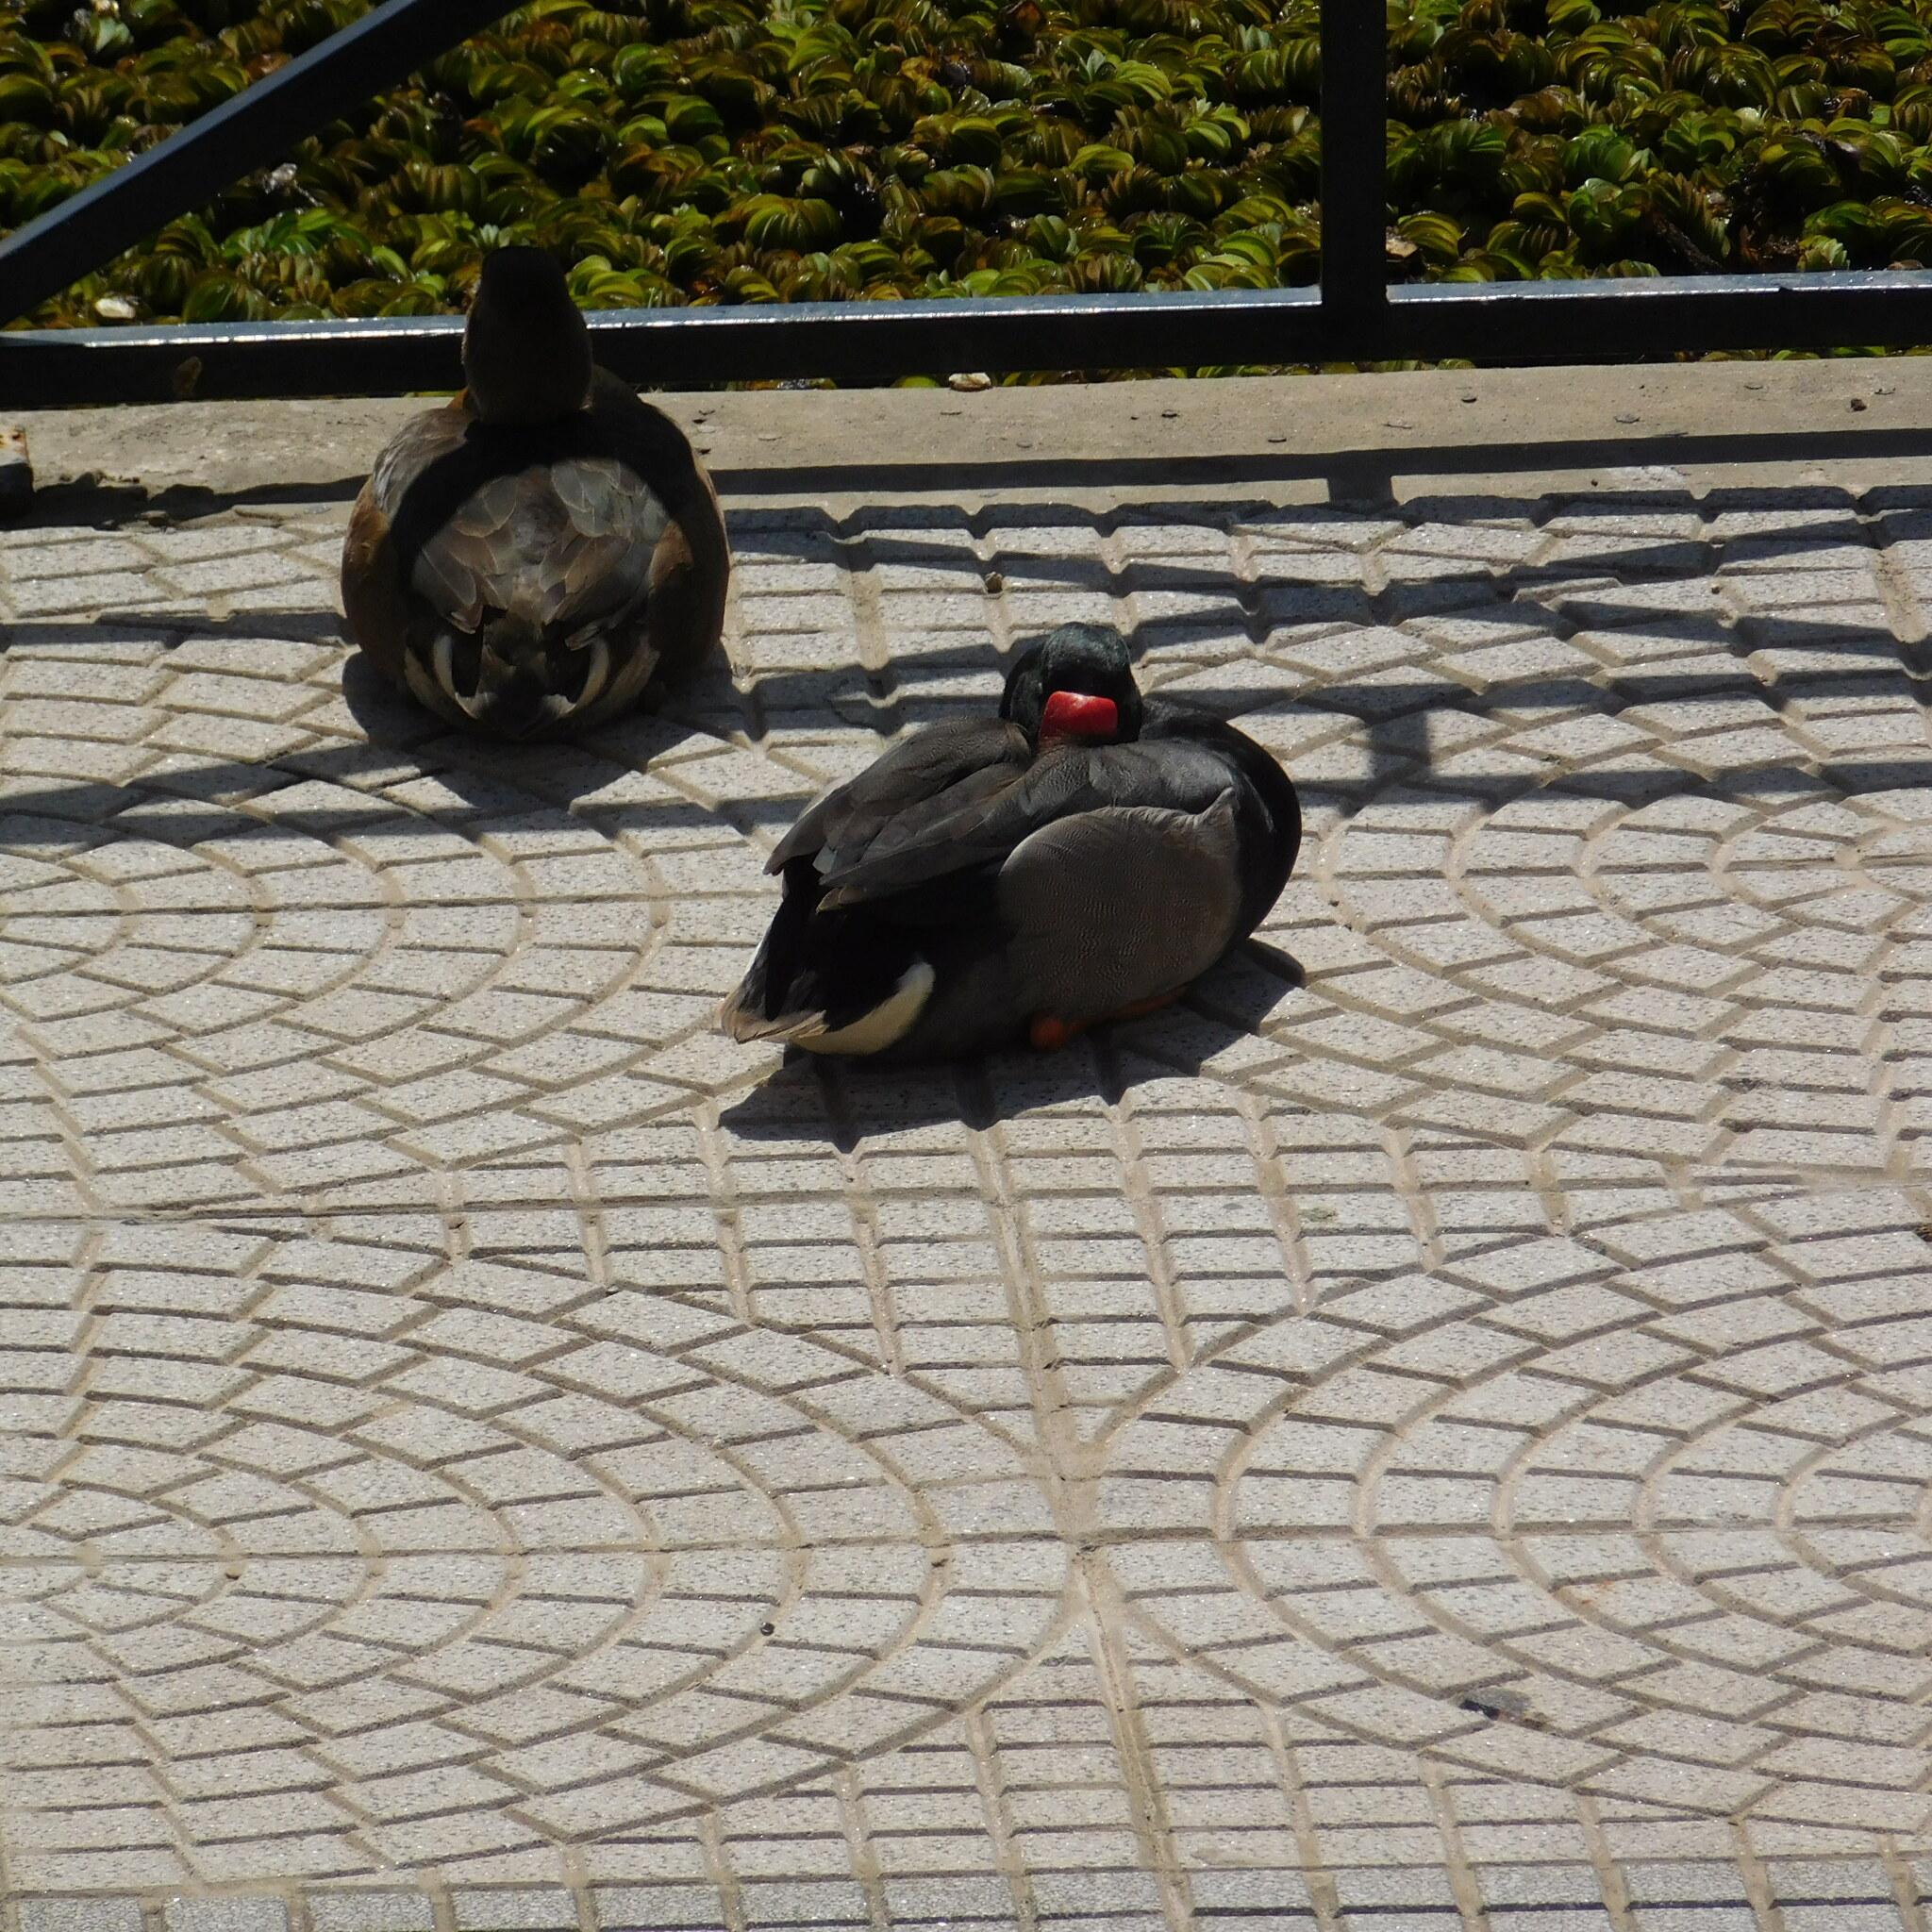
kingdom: Animalia
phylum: Chordata
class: Aves
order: Anseriformes
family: Anatidae
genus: Netta
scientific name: Netta peposaca
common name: Rosy-billed pochard
